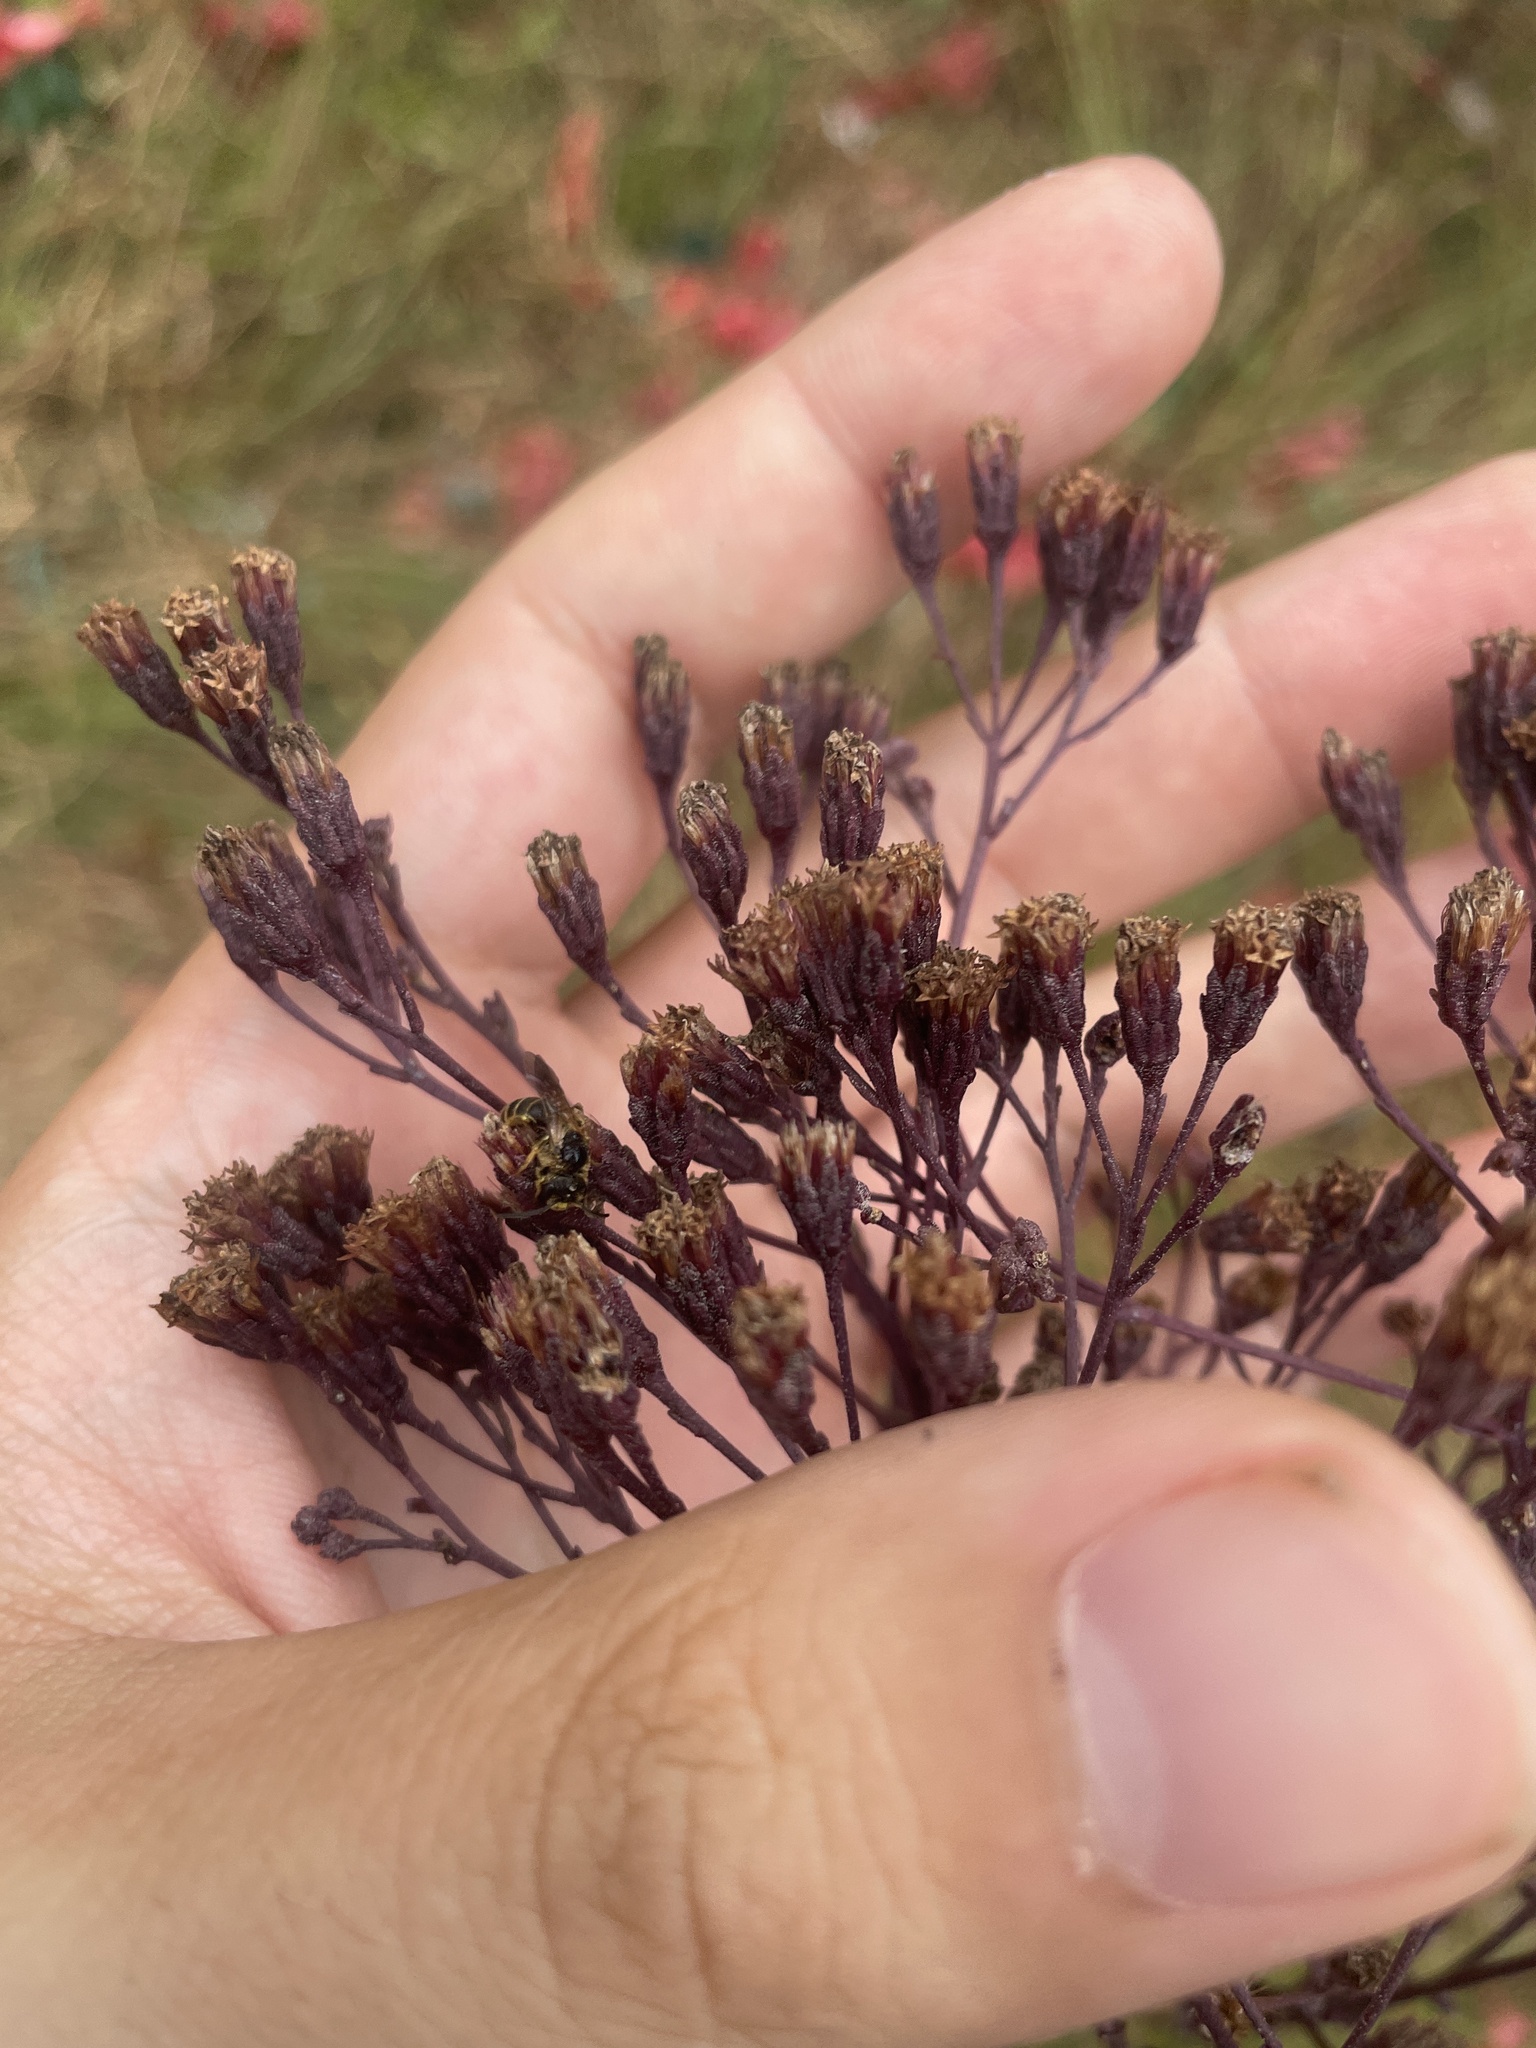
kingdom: Plantae
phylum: Tracheophyta
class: Magnoliopsida
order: Asterales
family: Asteraceae
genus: Carphephorus
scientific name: Carphephorus odoratissimus
